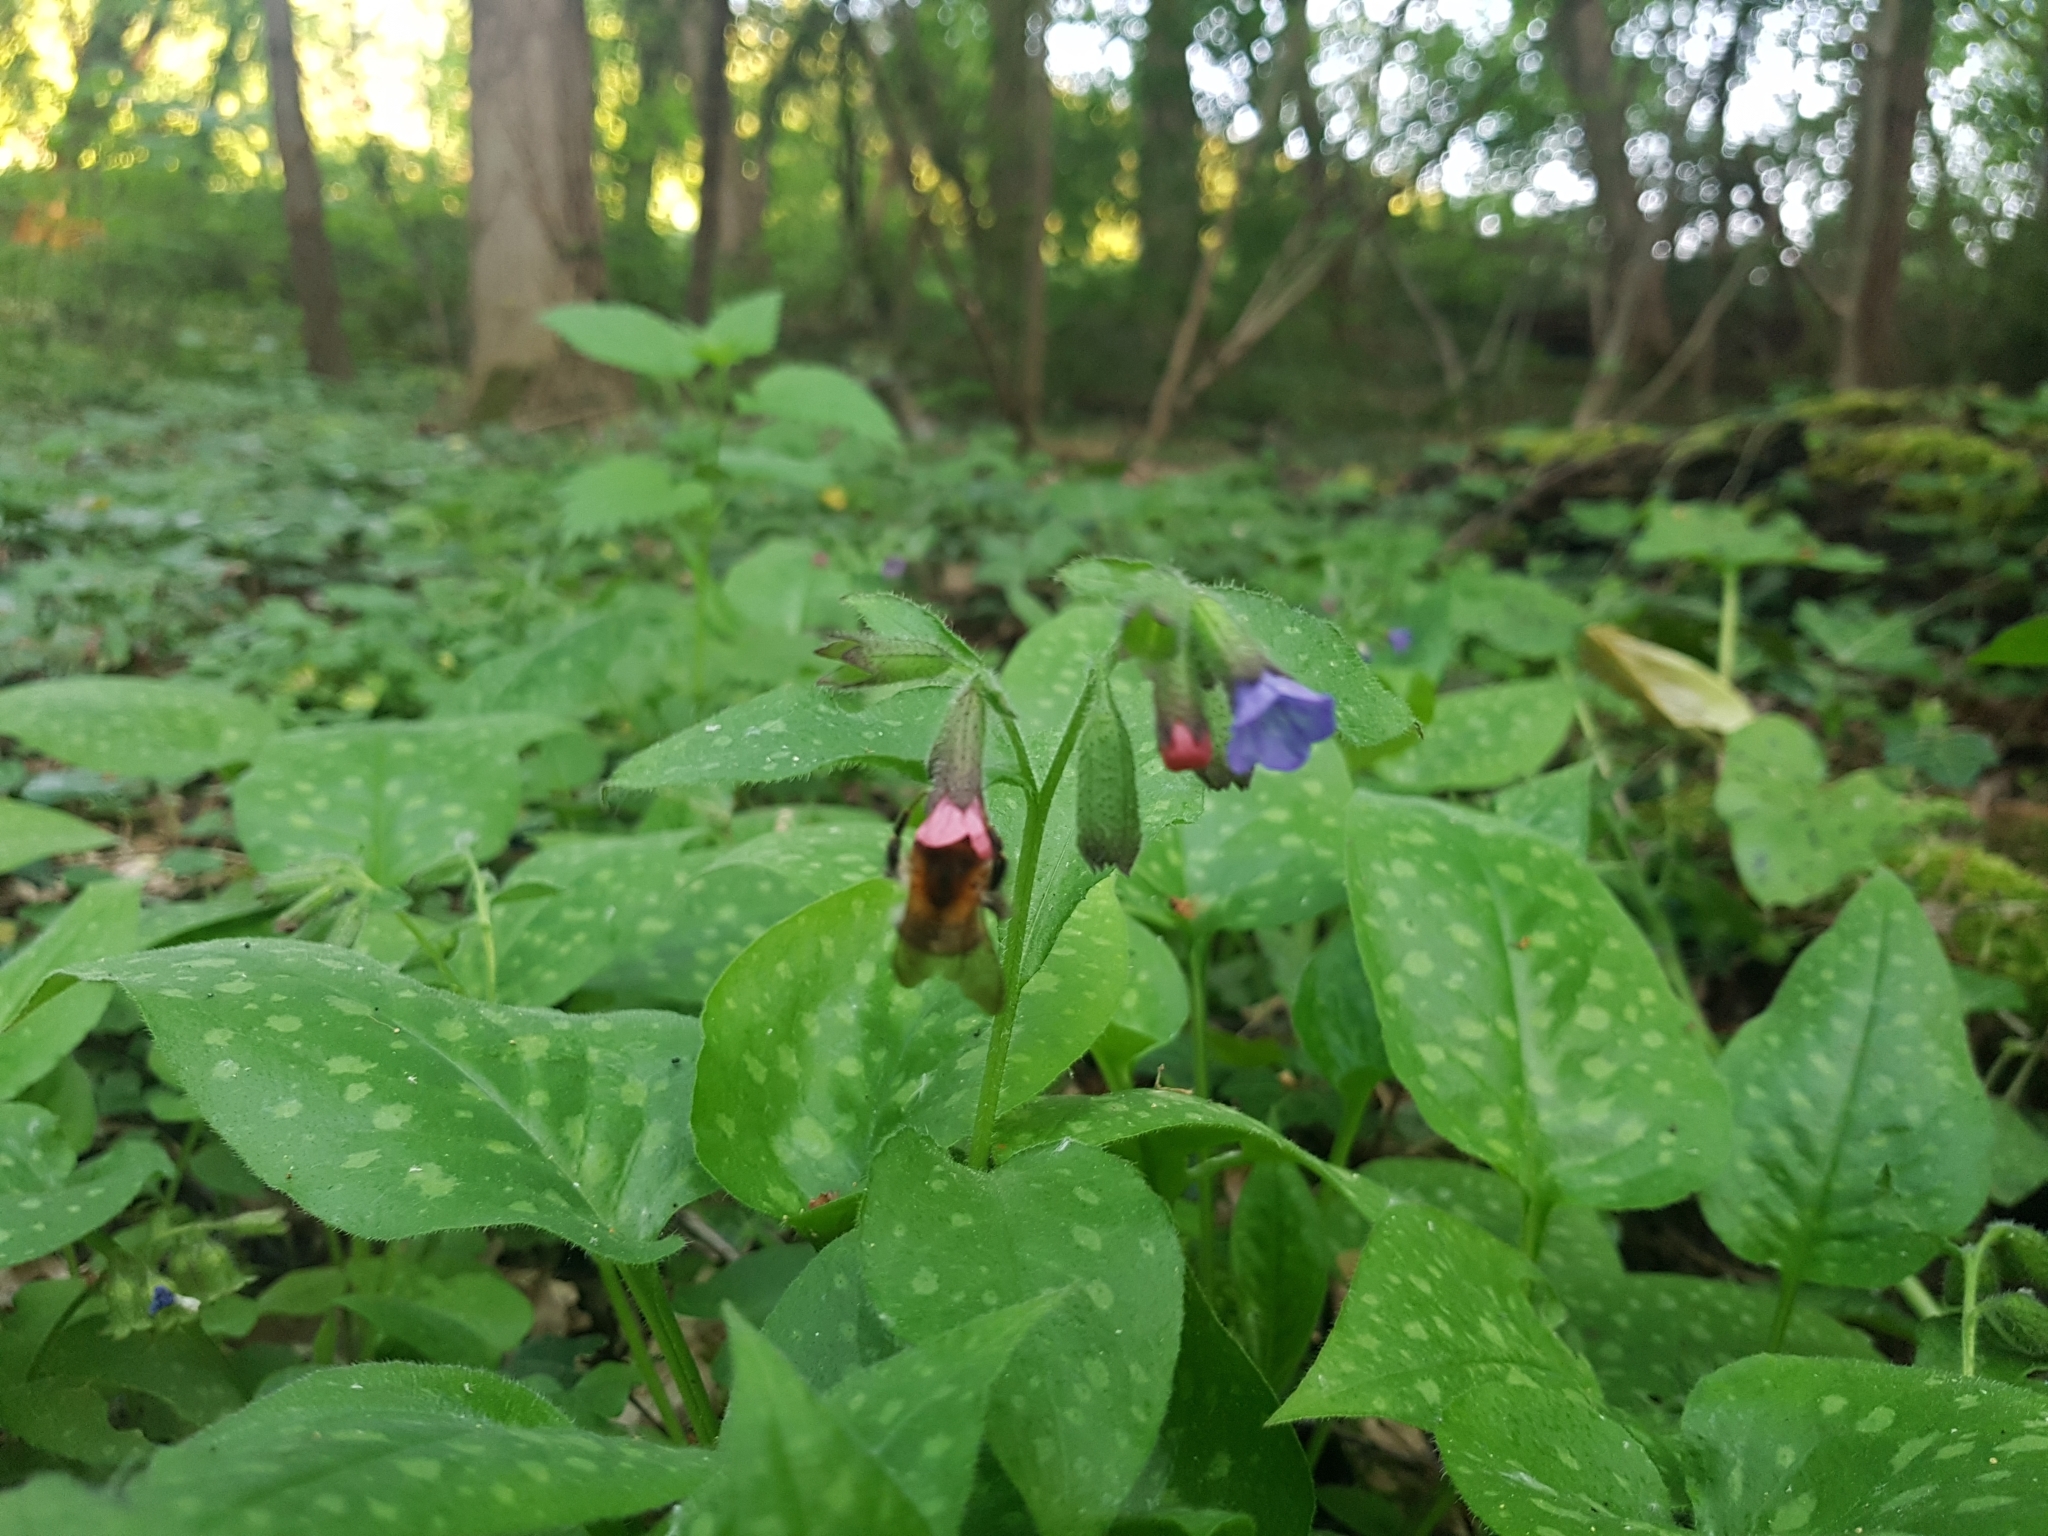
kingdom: Plantae
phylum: Tracheophyta
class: Magnoliopsida
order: Boraginales
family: Boraginaceae
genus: Pulmonaria
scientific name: Pulmonaria officinalis
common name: Lungwort
